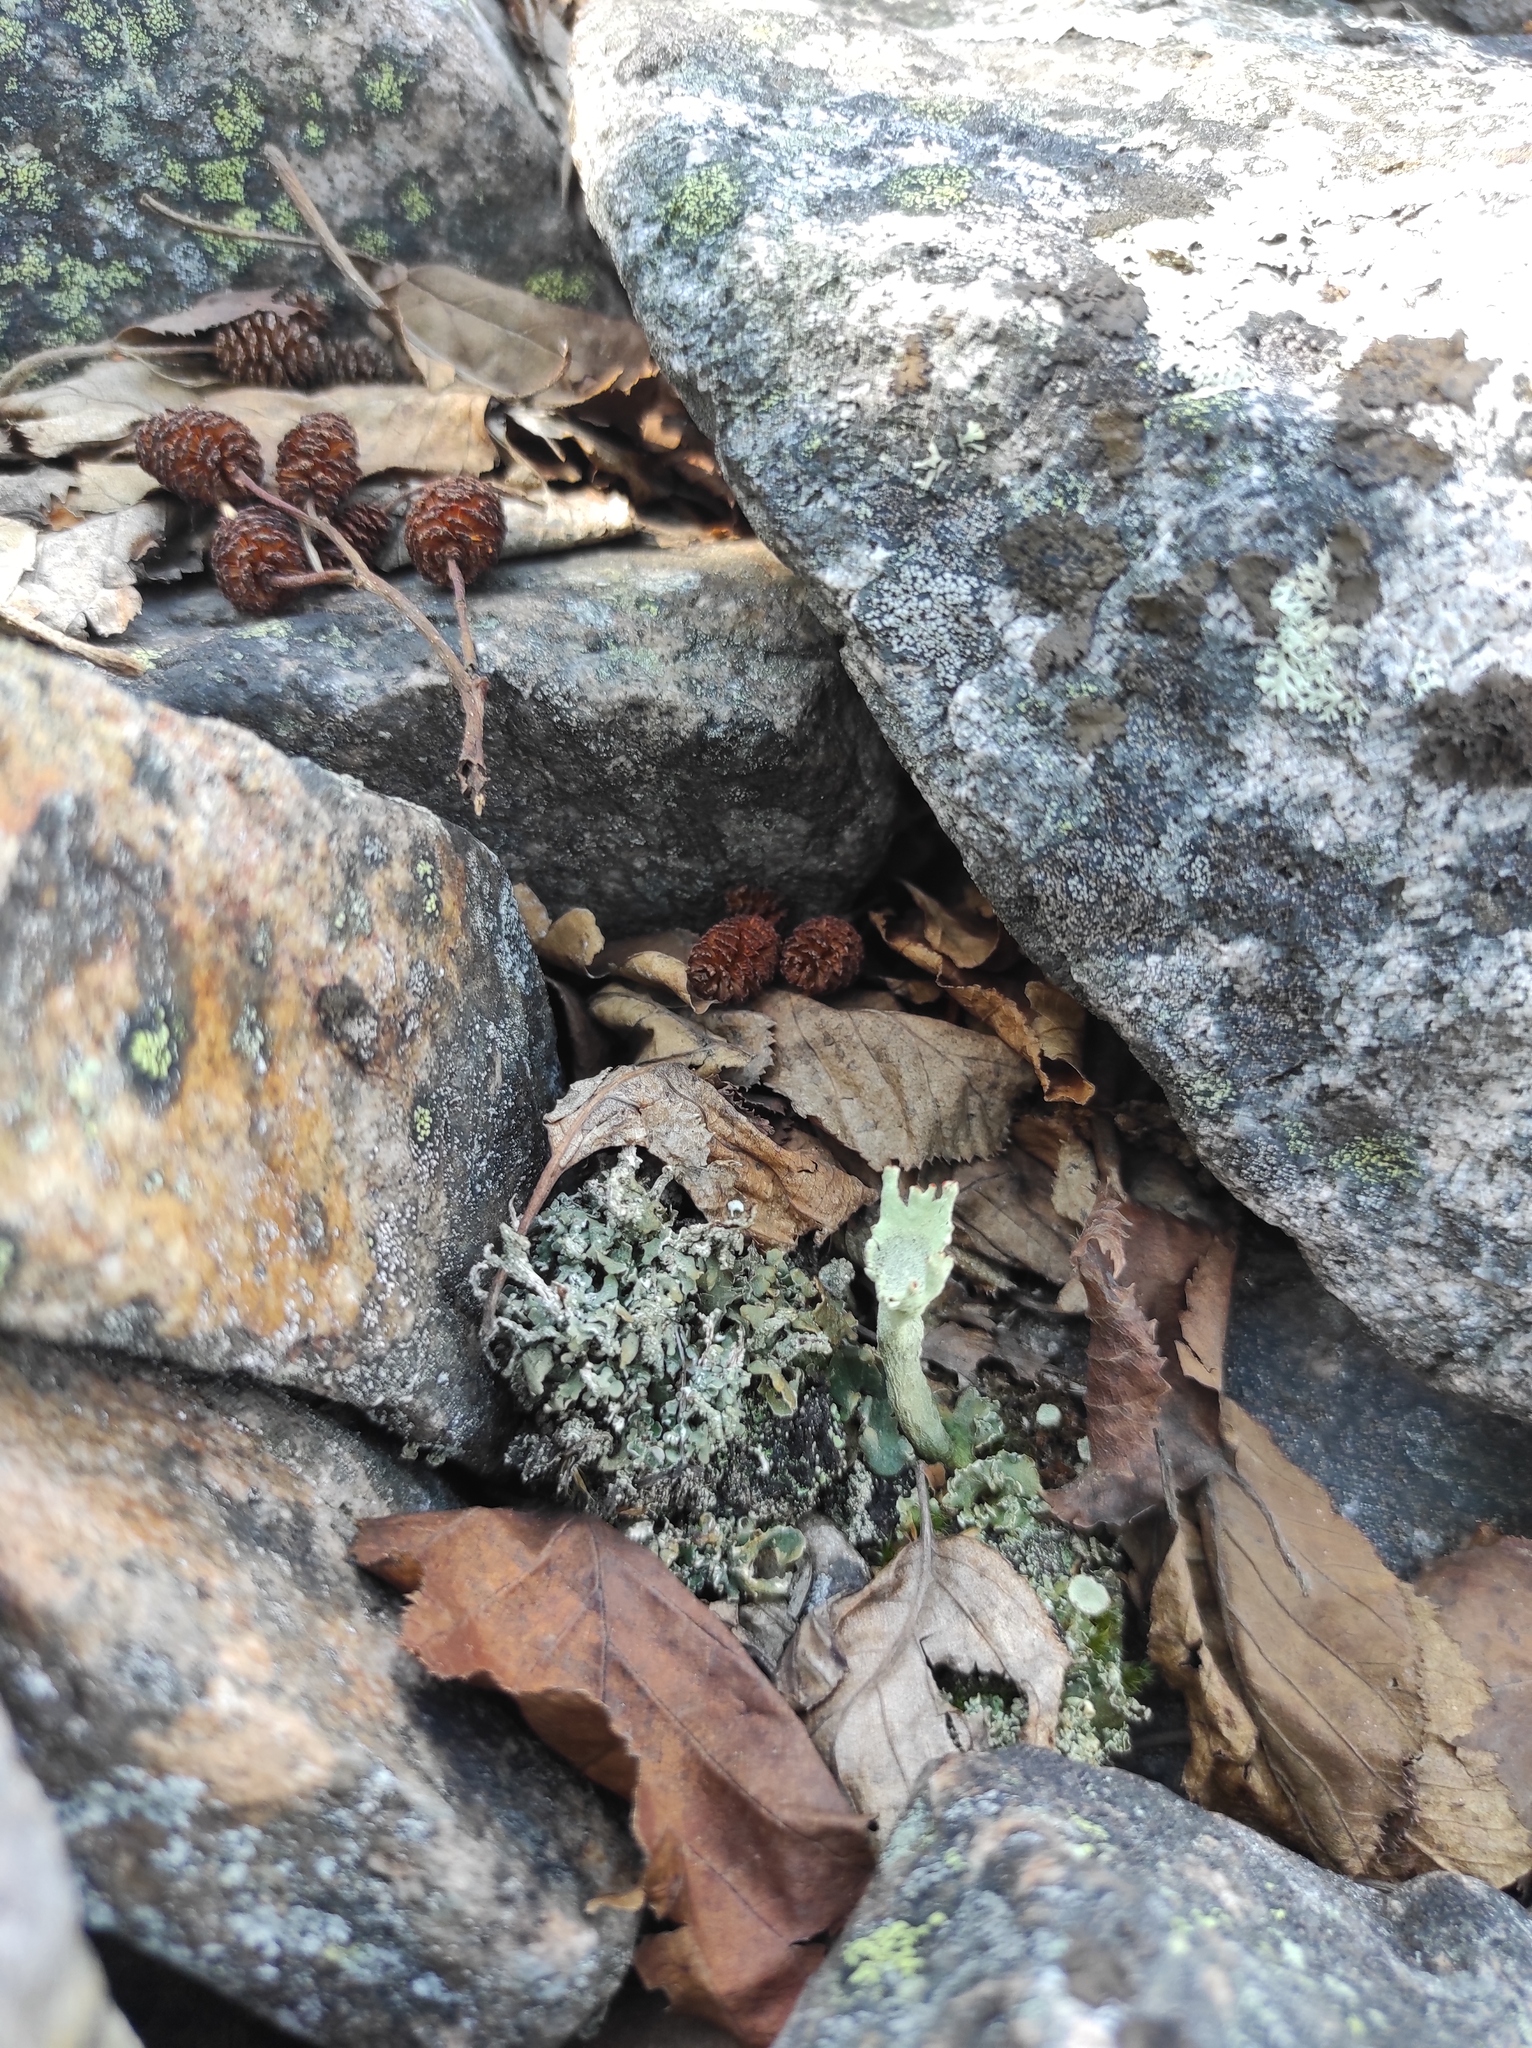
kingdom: Plantae
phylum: Tracheophyta
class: Magnoliopsida
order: Fagales
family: Betulaceae
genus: Alnus
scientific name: Alnus alnobetula
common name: Green alder
